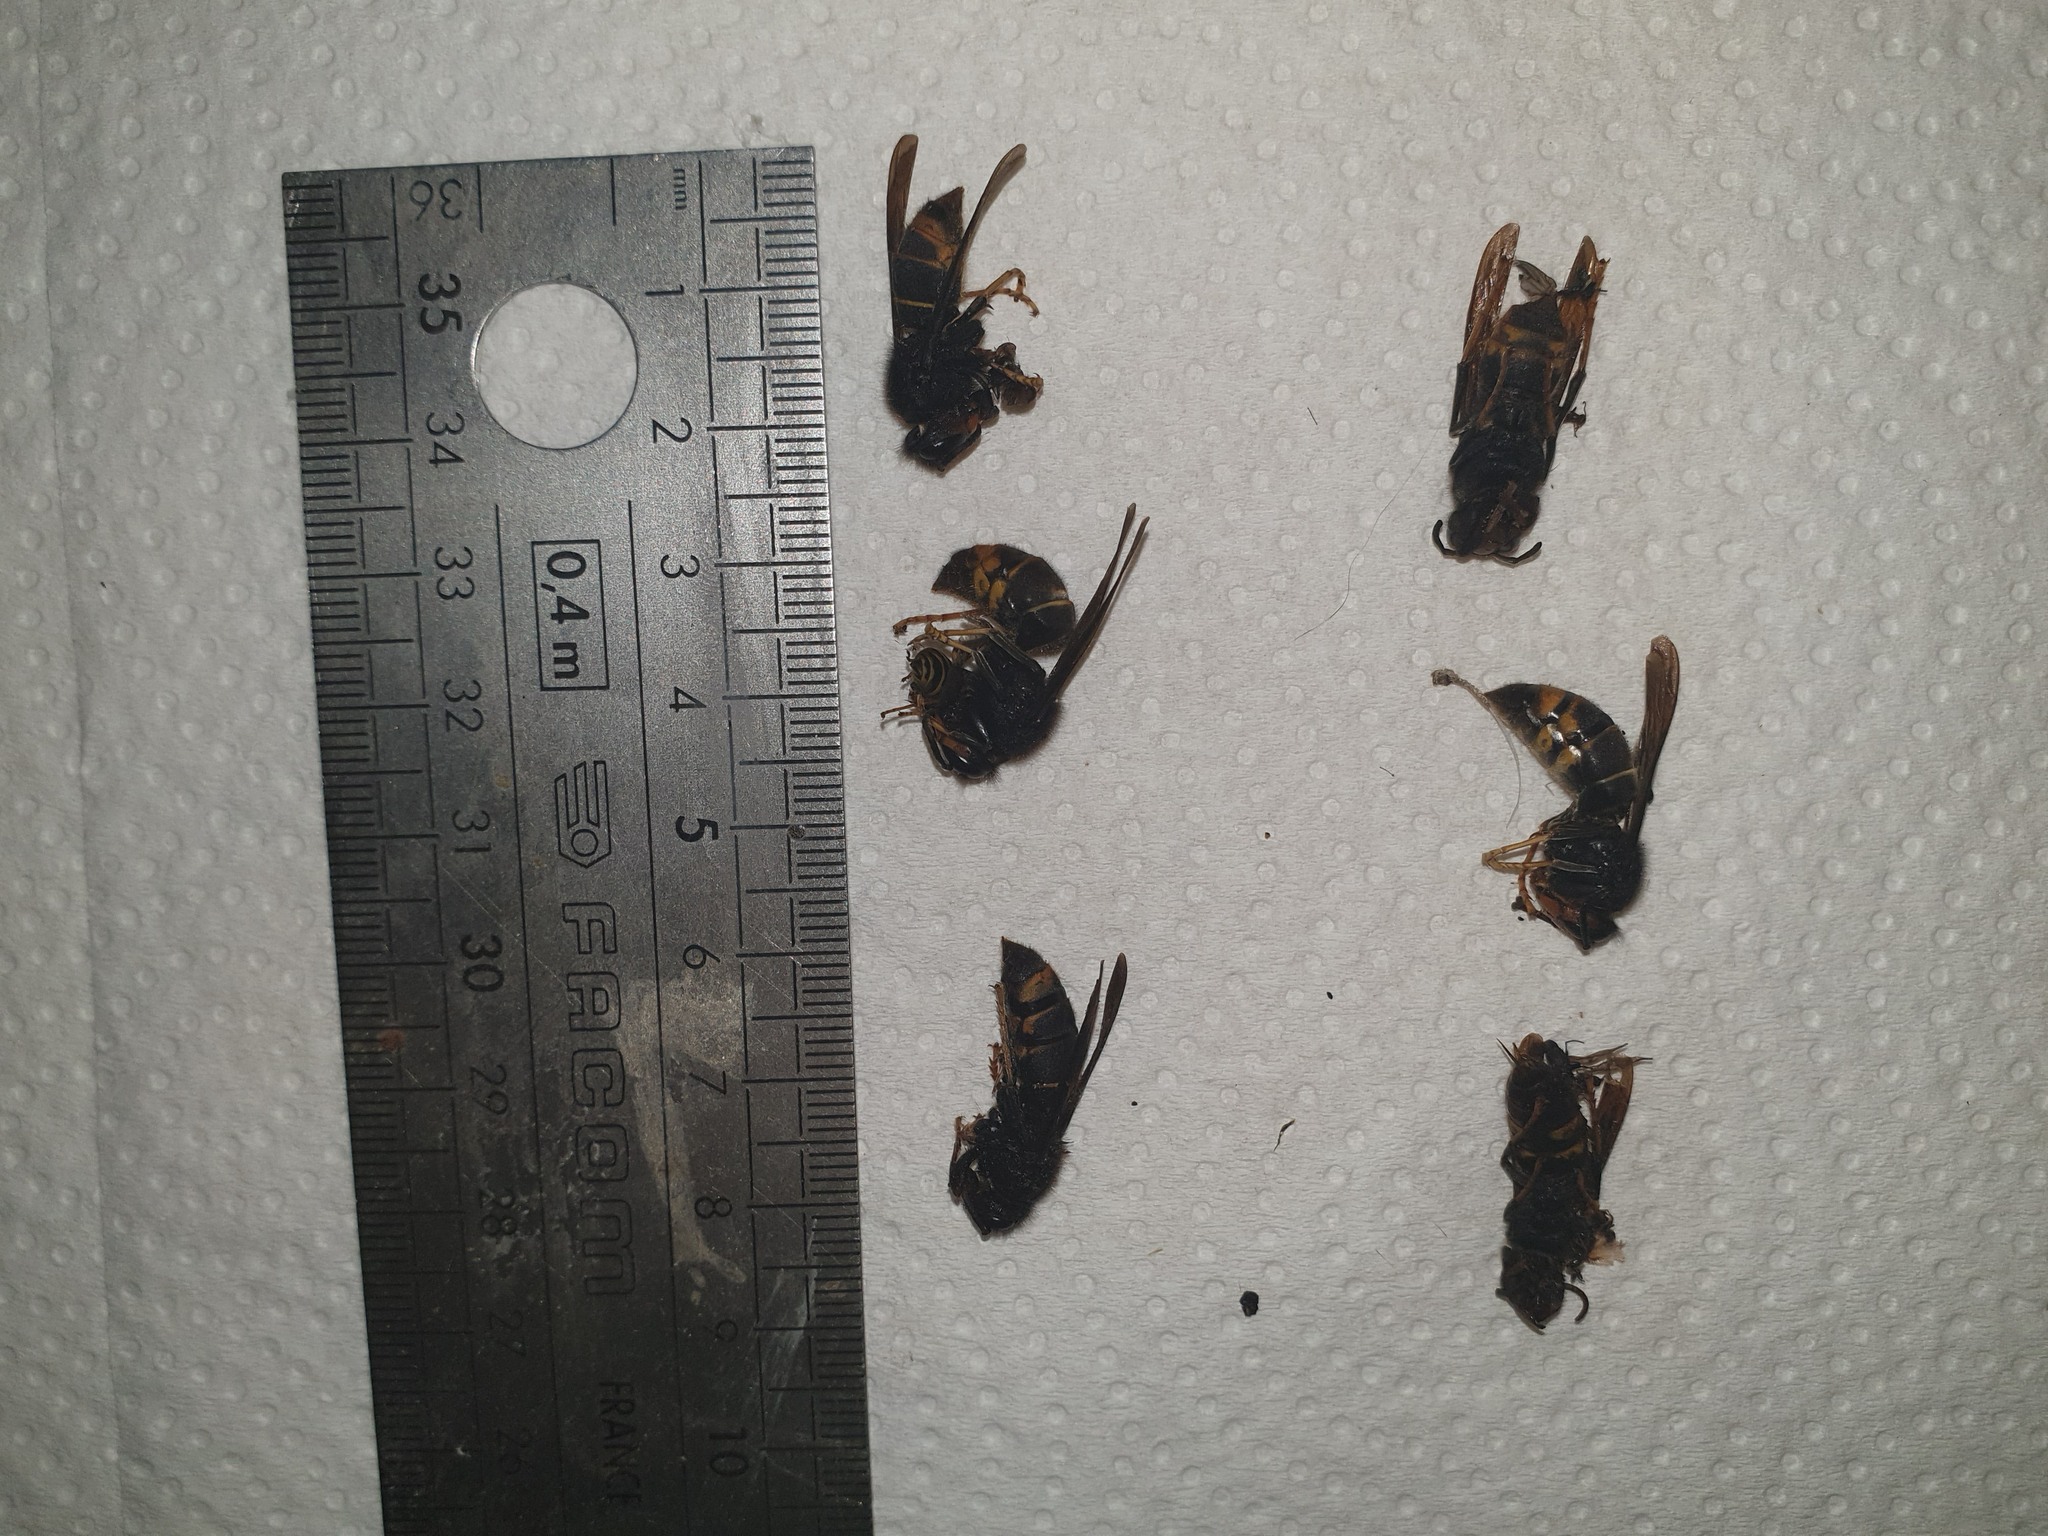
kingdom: Animalia
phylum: Arthropoda
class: Insecta
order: Hymenoptera
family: Vespidae
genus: Vespa
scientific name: Vespa velutina
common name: Asian hornet
